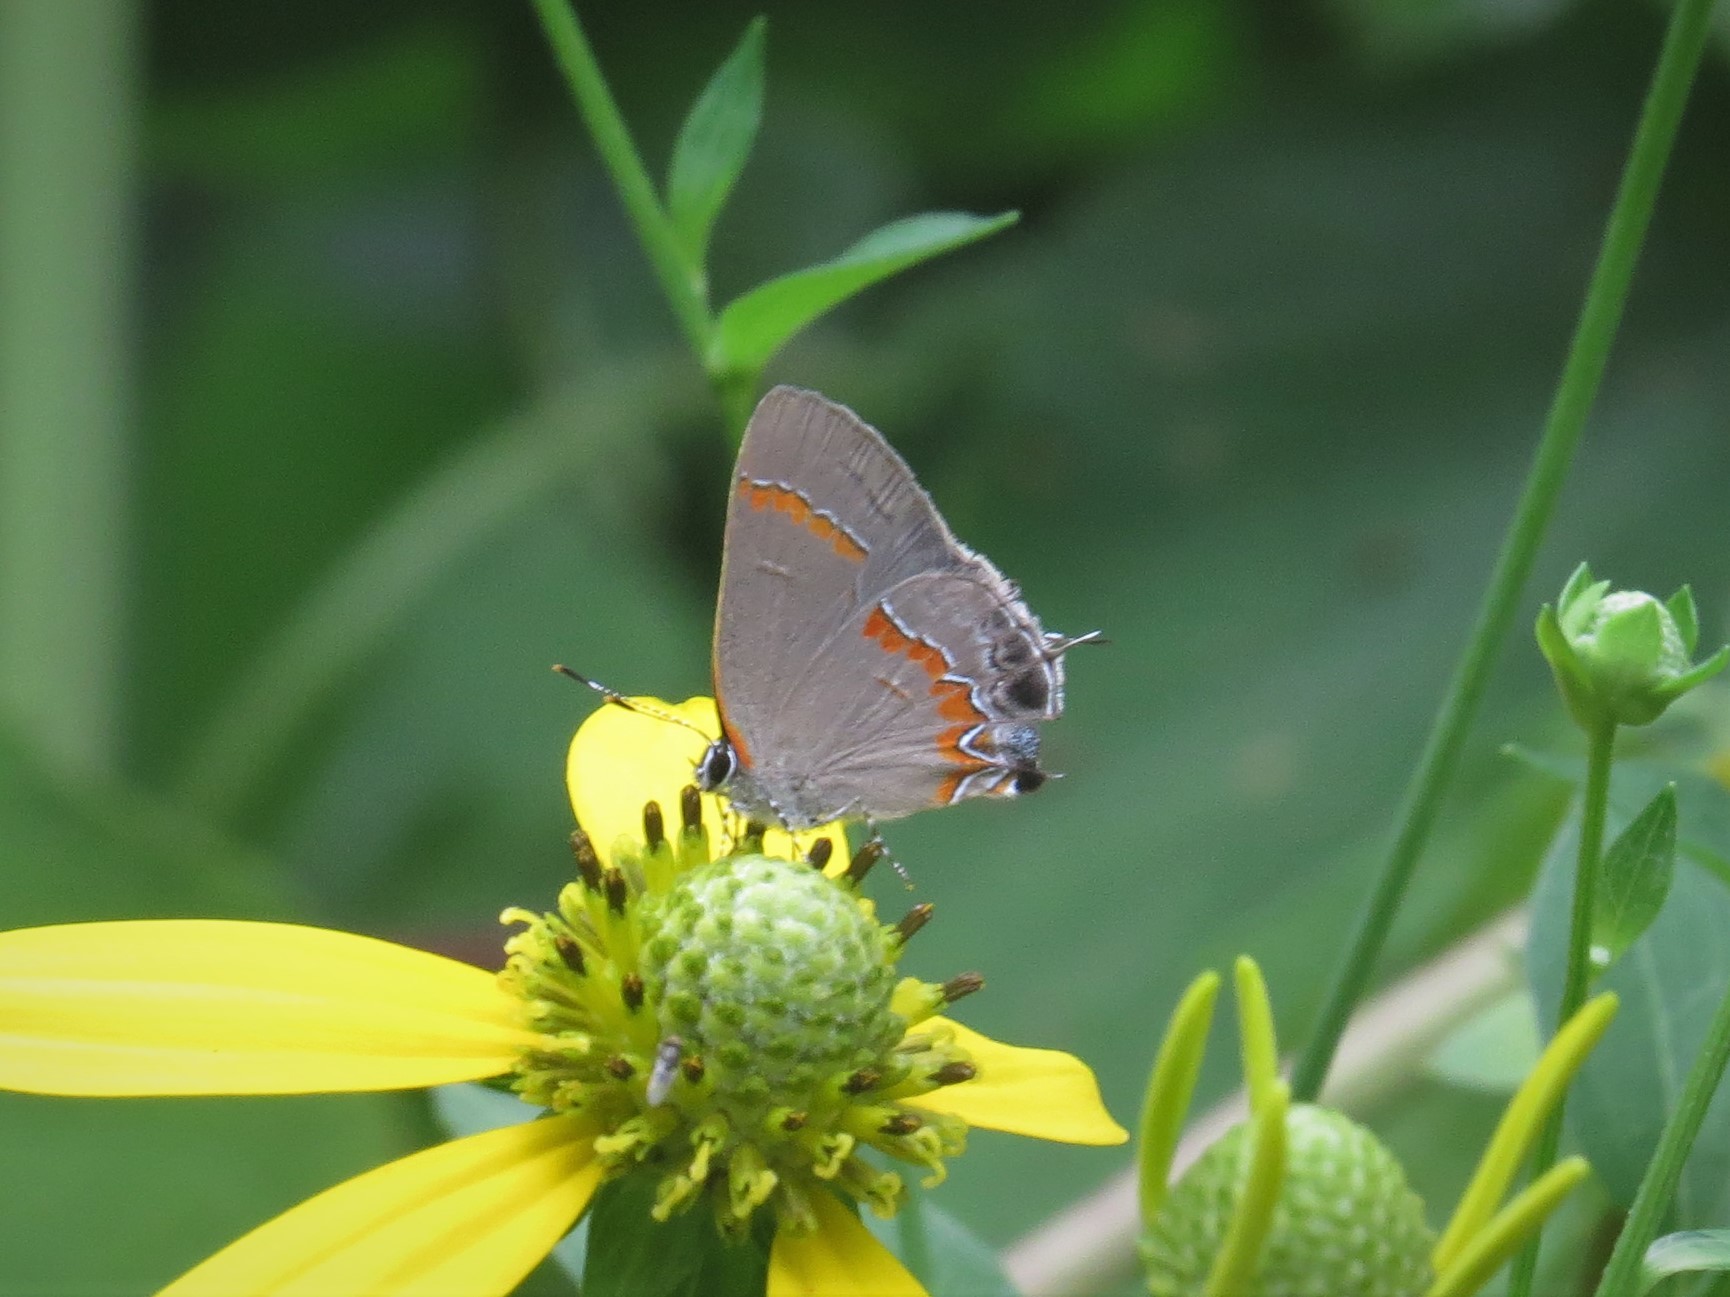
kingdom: Animalia
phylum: Arthropoda
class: Insecta
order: Lepidoptera
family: Lycaenidae
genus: Calycopis
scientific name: Calycopis cecrops
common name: Red-banded hairstreak
